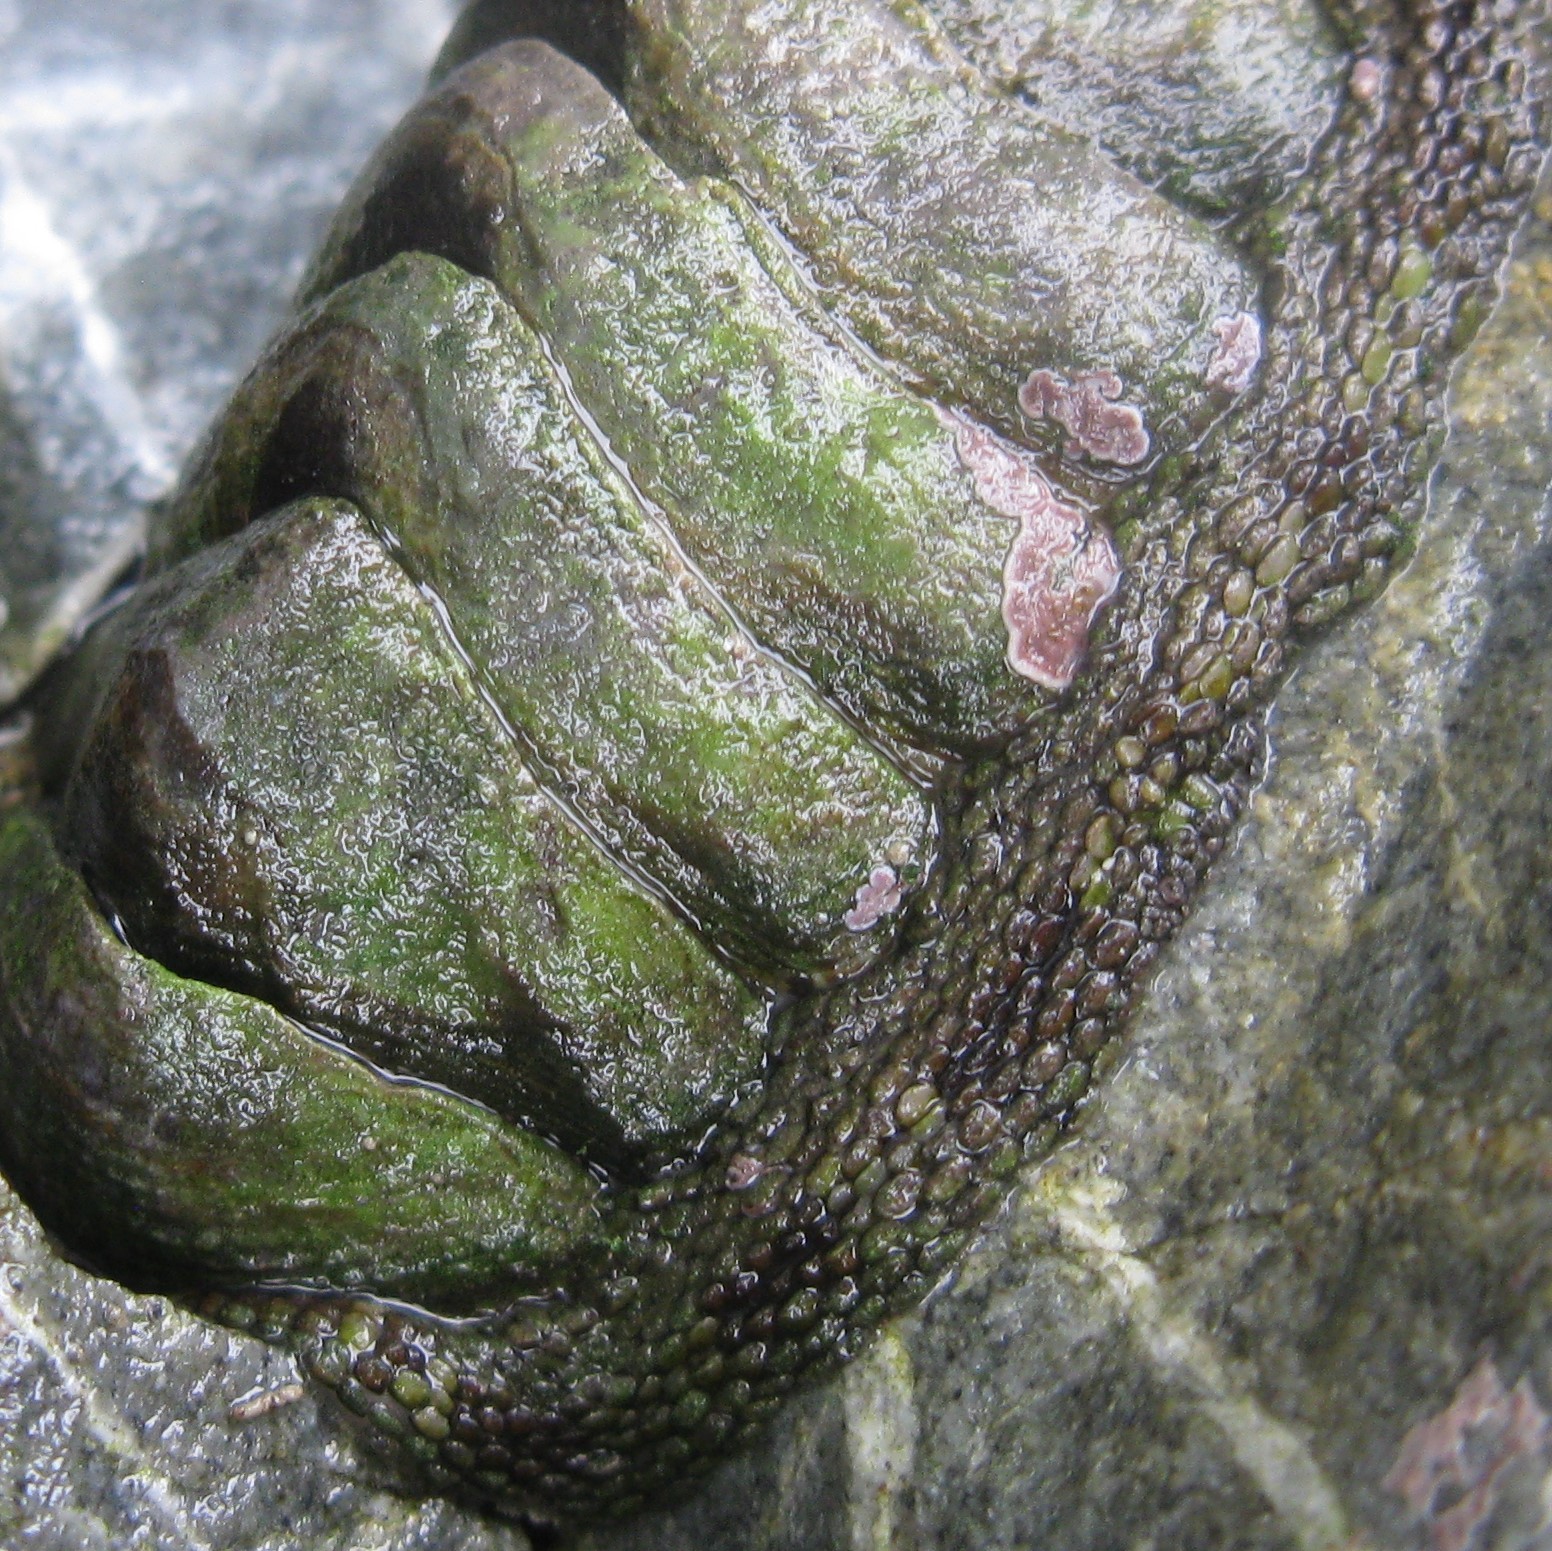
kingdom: Animalia
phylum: Mollusca
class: Polyplacophora
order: Chitonida
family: Chitonidae
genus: Sypharochiton
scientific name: Sypharochiton pelliserpentis
